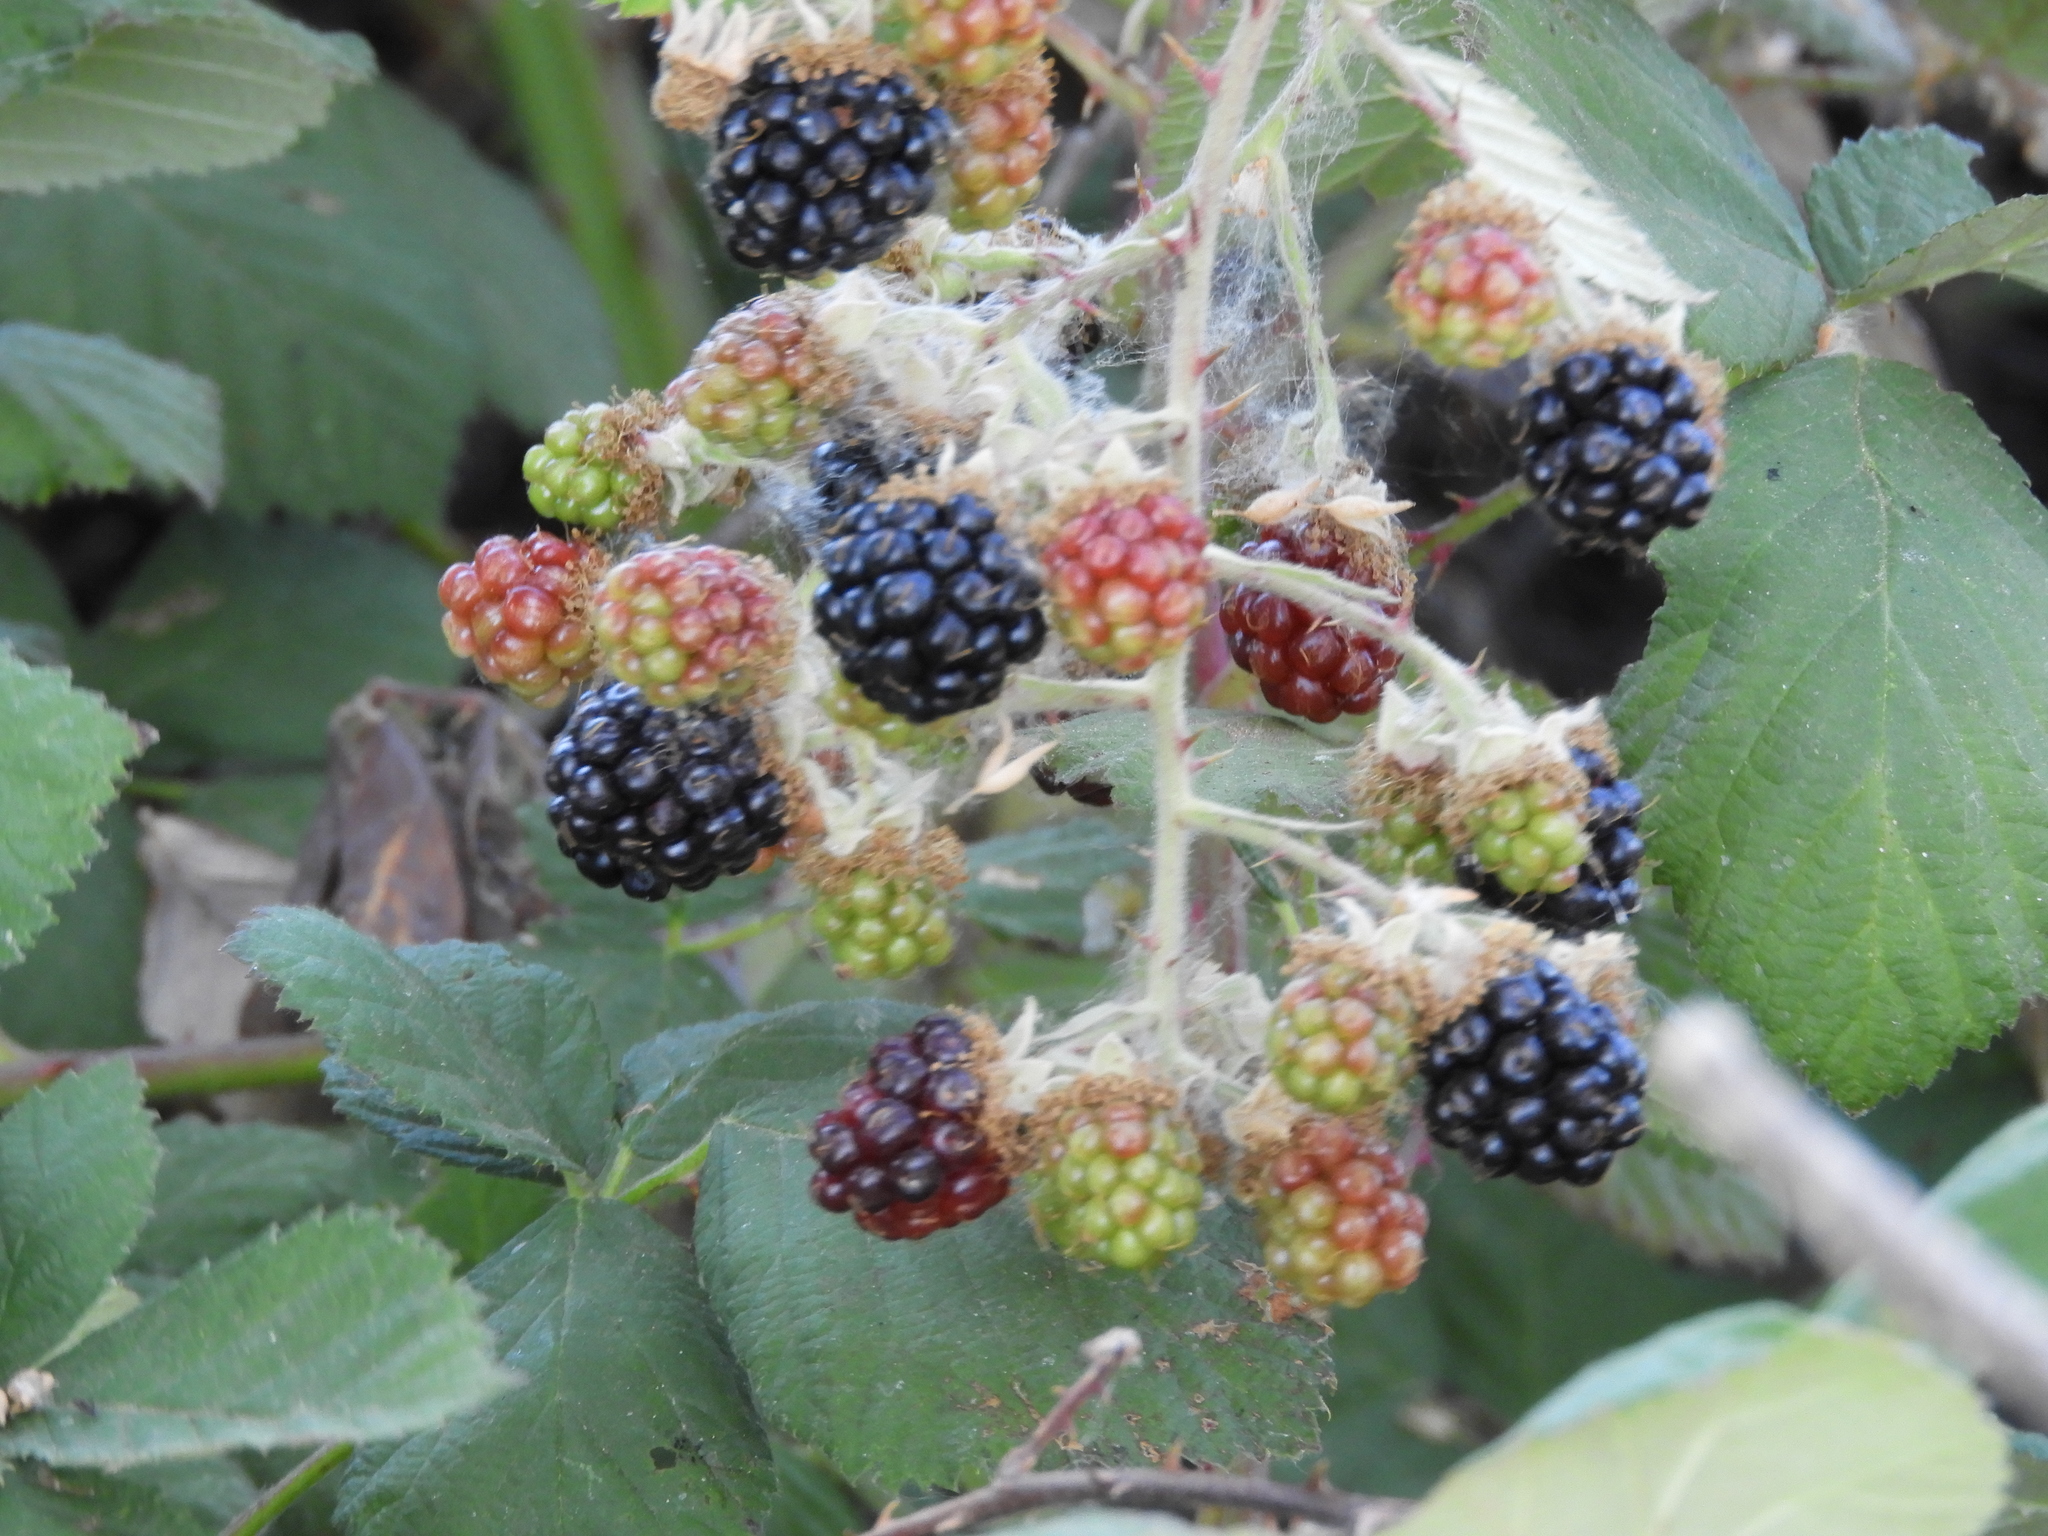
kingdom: Plantae
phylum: Tracheophyta
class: Magnoliopsida
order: Rosales
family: Rosaceae
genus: Rubus
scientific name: Rubus armeniacus
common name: Himalayan blackberry
